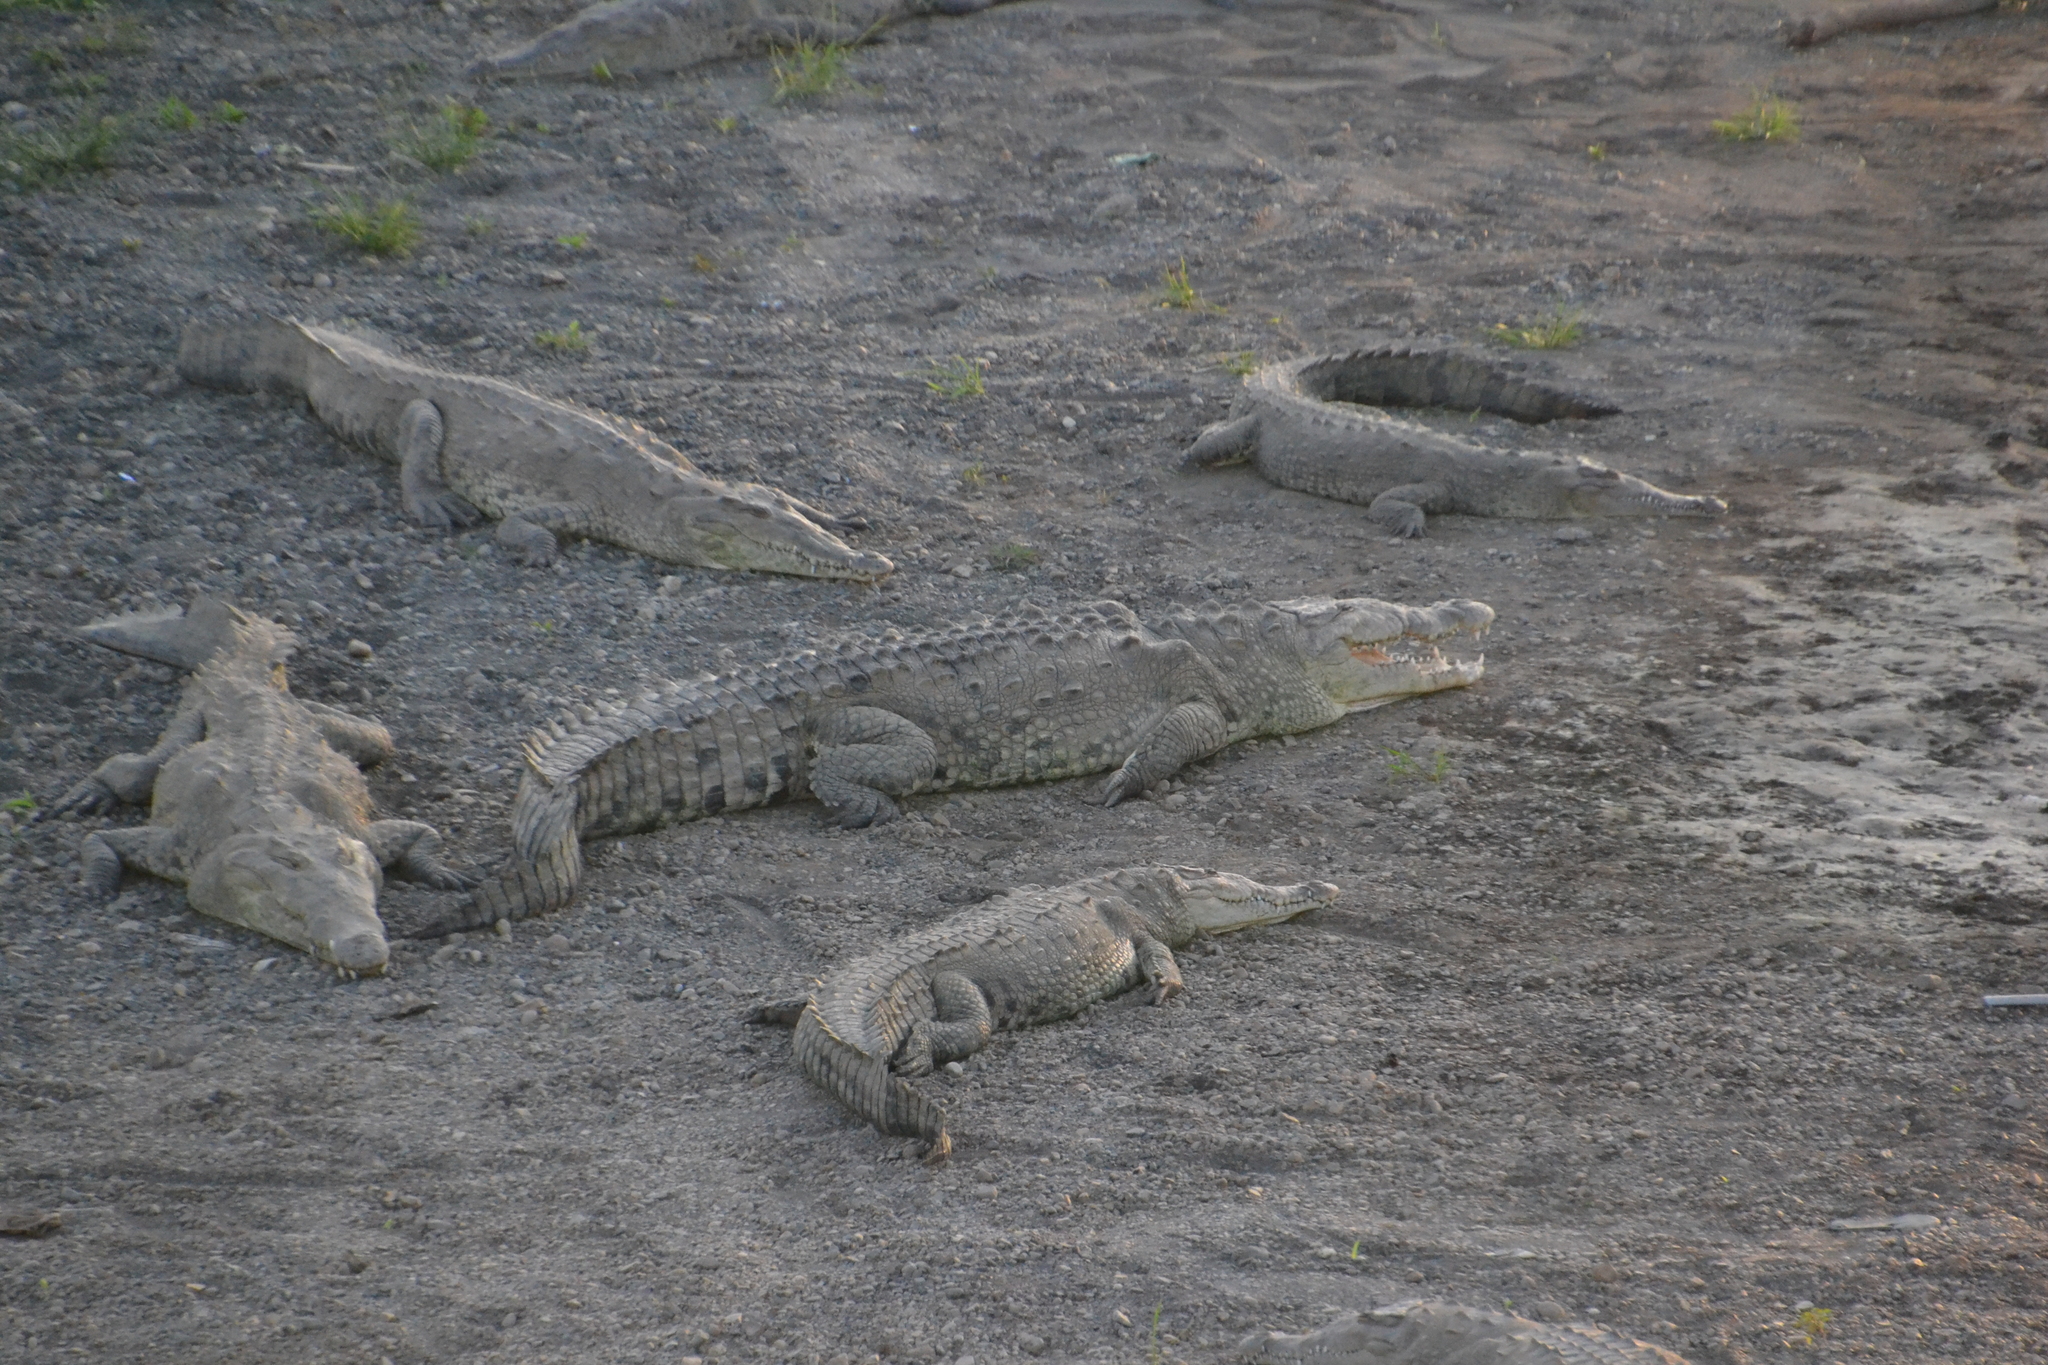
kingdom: Animalia
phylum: Chordata
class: Crocodylia
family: Crocodylidae
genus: Crocodylus
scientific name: Crocodylus acutus
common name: American crocodile
